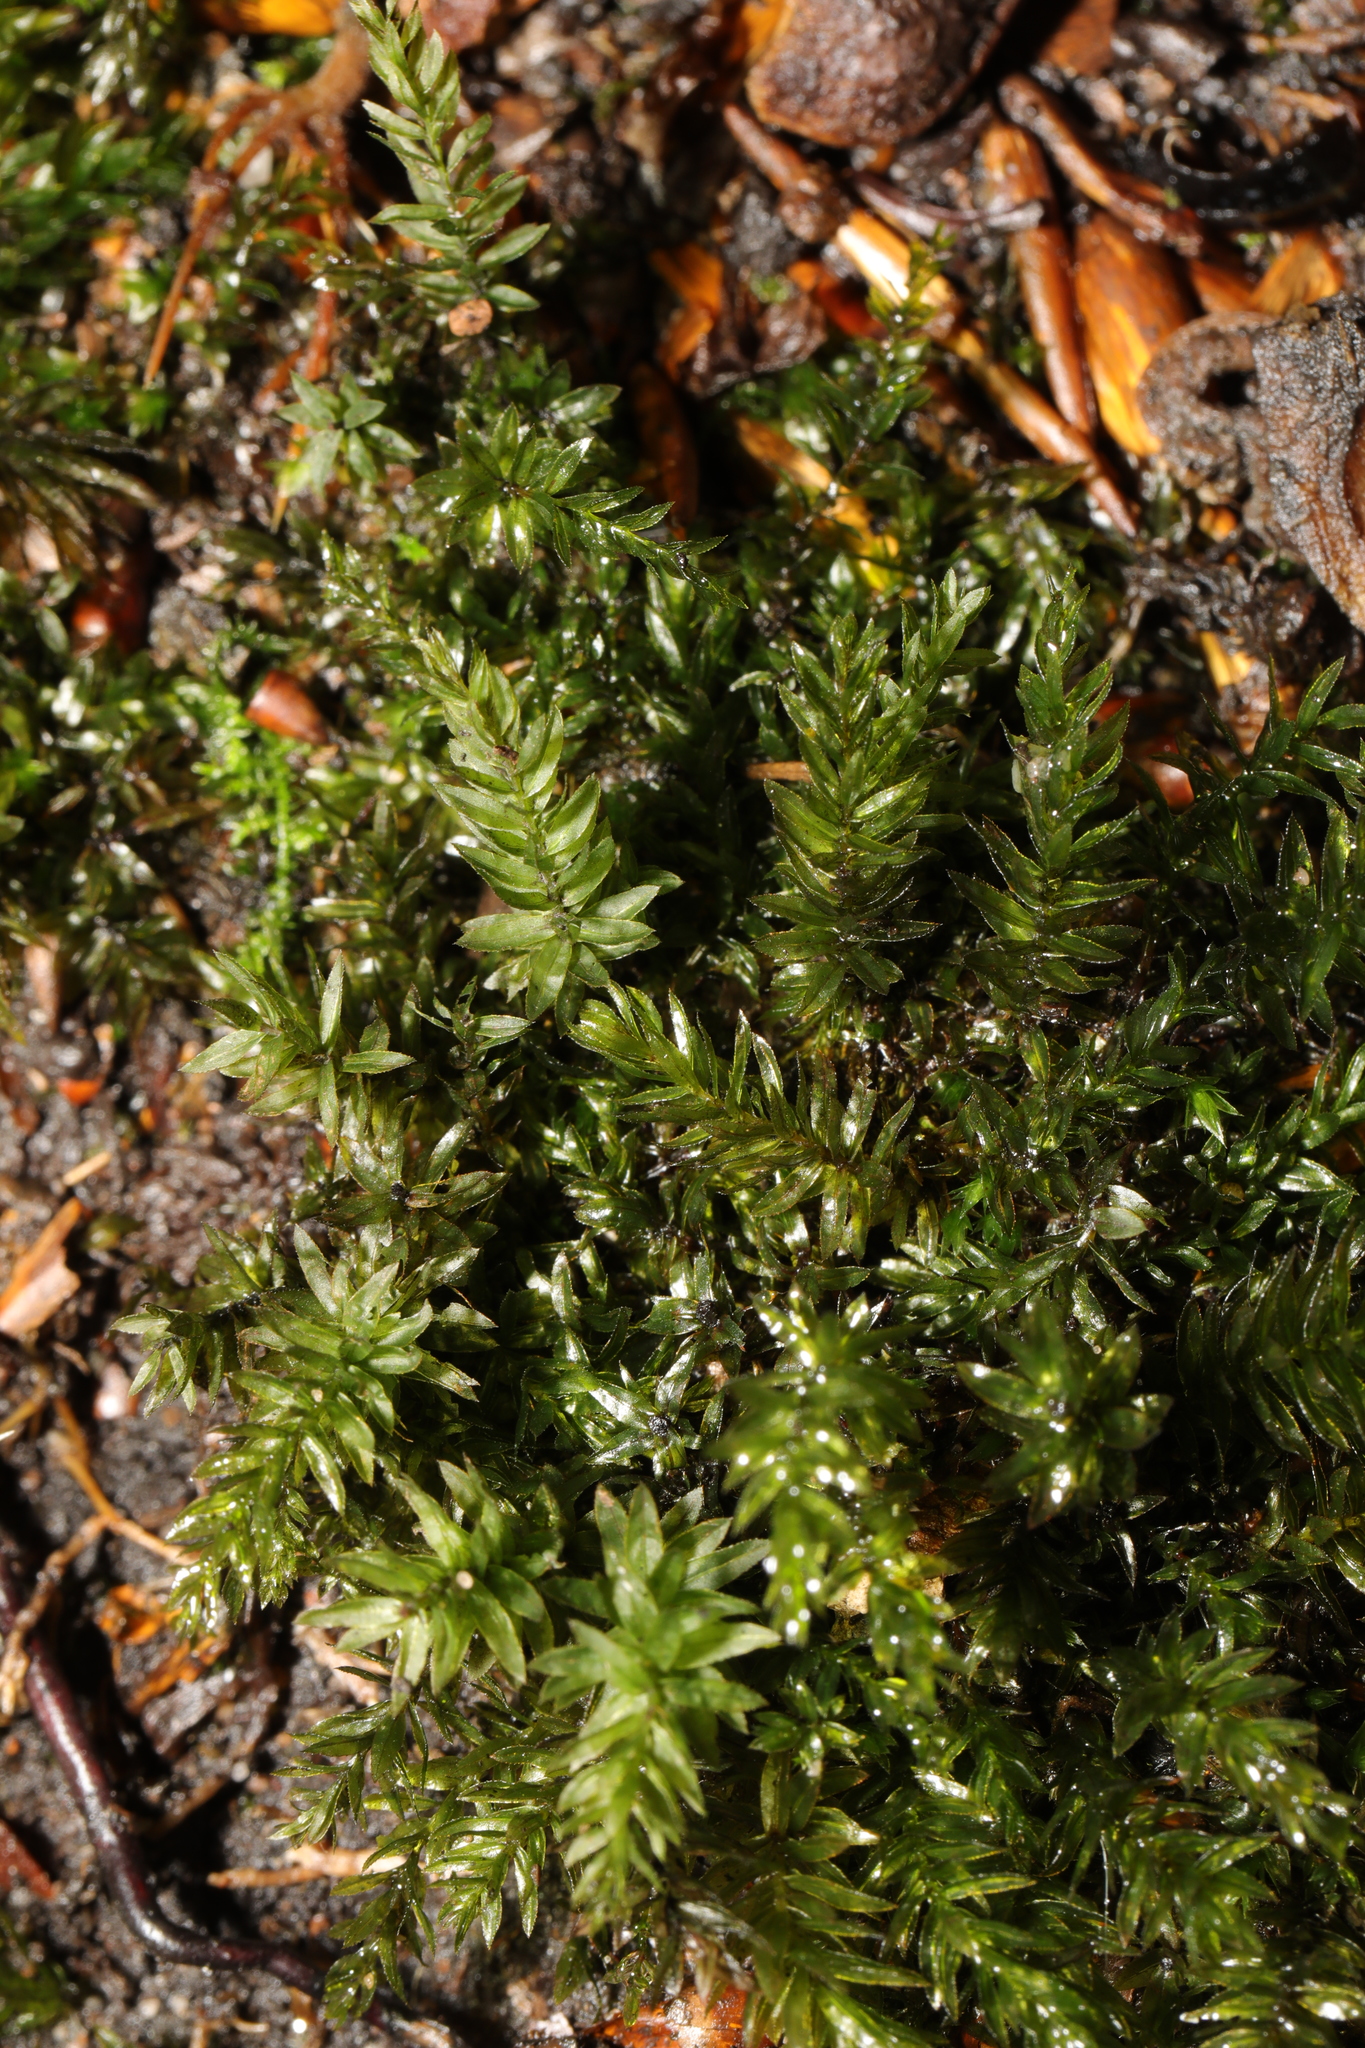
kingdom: Plantae
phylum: Bryophyta
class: Bryopsida
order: Bryales
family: Mniaceae
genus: Mnium
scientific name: Mnium hornum
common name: Swan's-neck leafy moss
